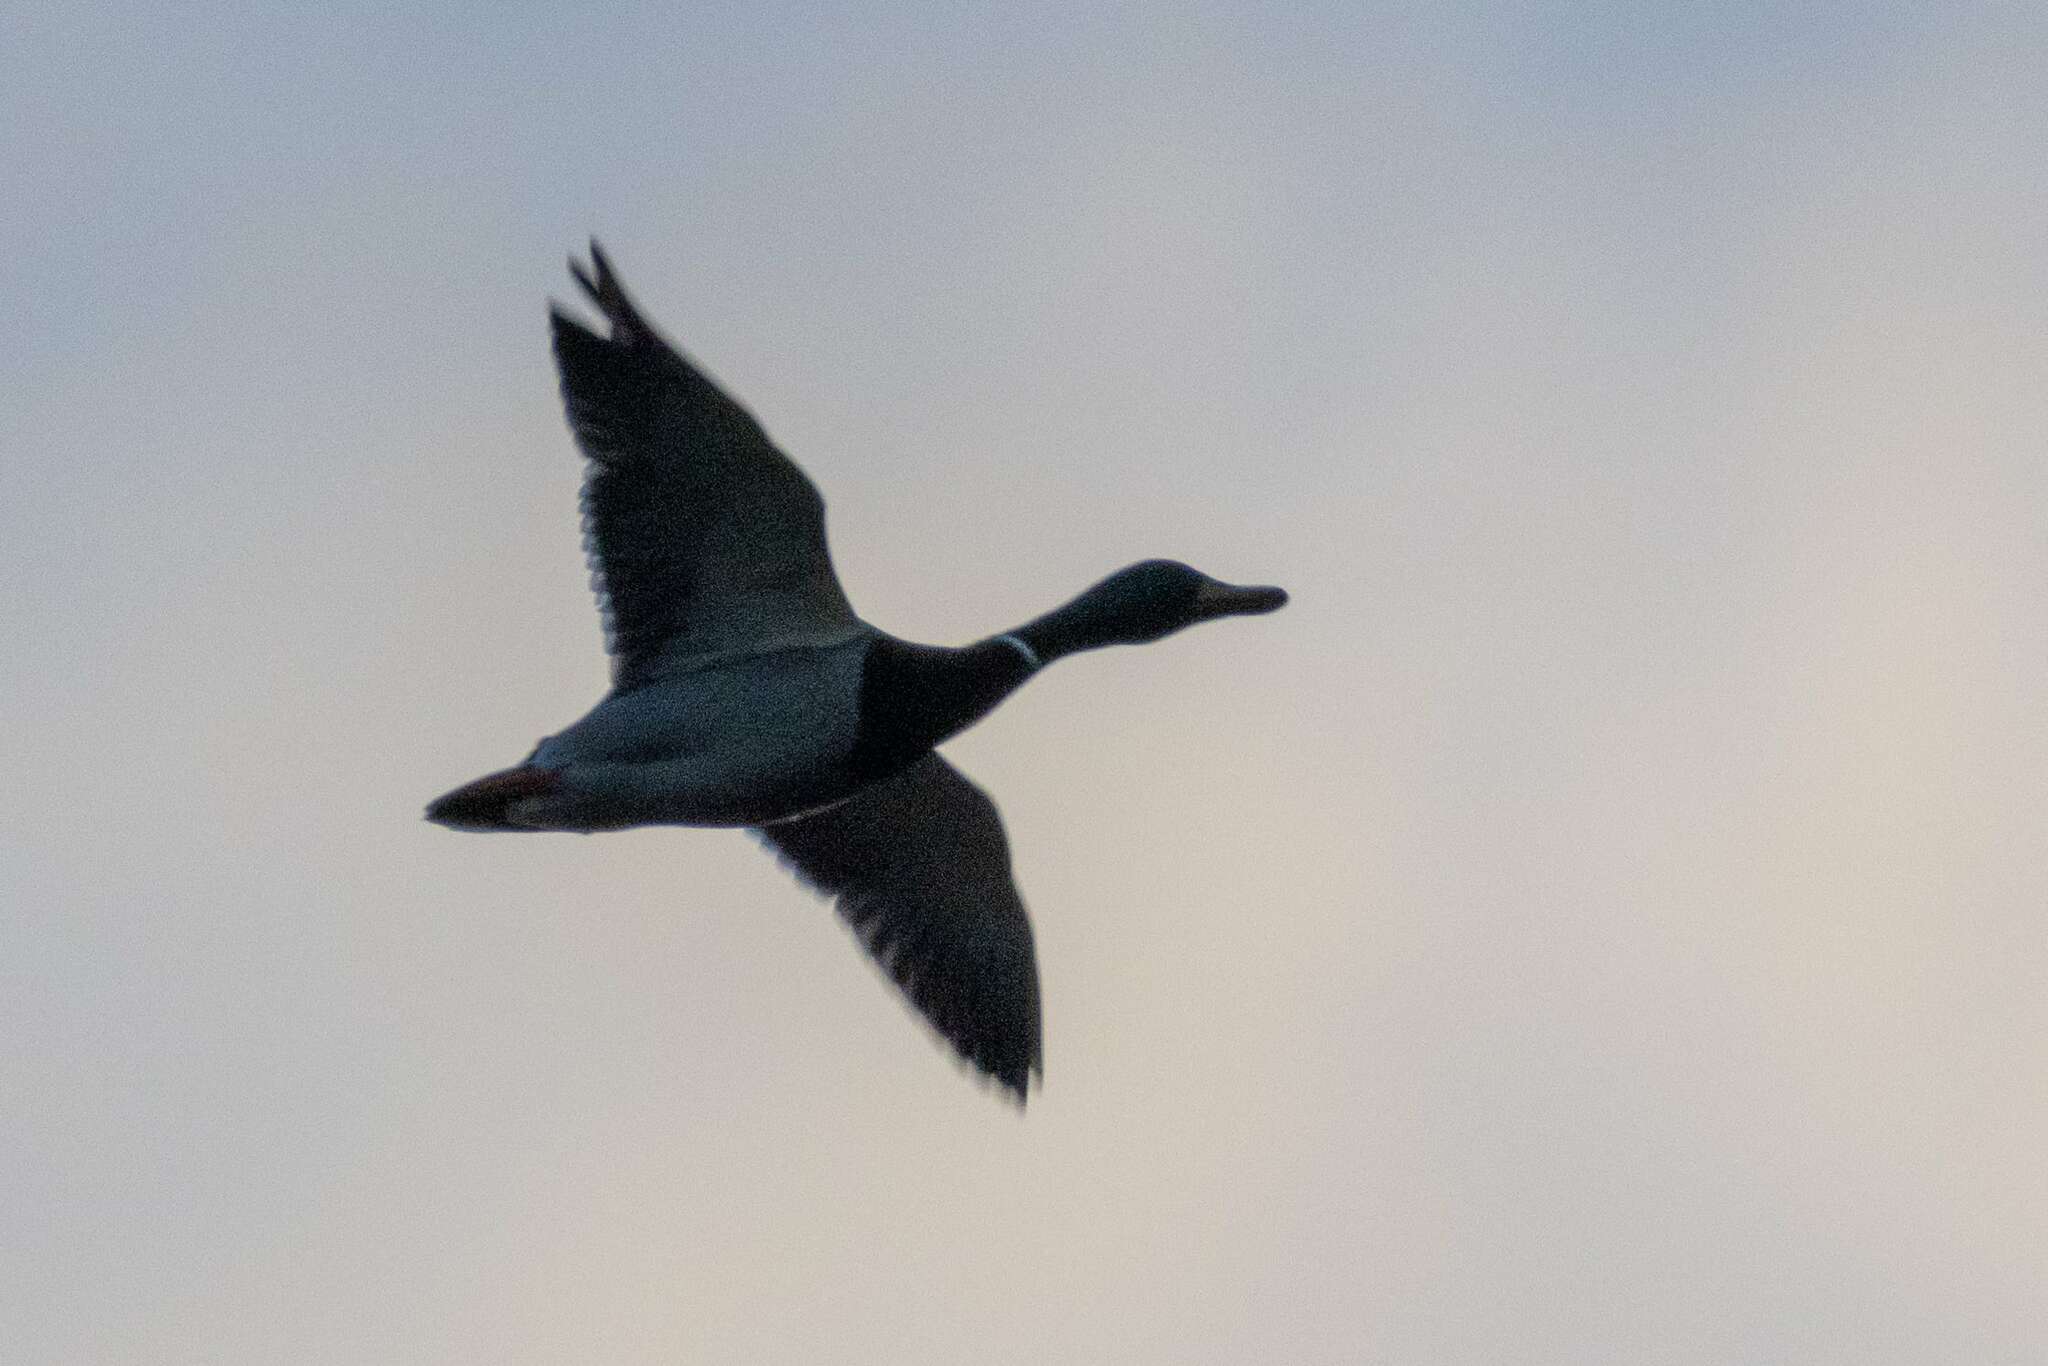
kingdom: Animalia
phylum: Chordata
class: Aves
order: Anseriformes
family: Anatidae
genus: Anas
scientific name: Anas platyrhynchos
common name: Mallard
